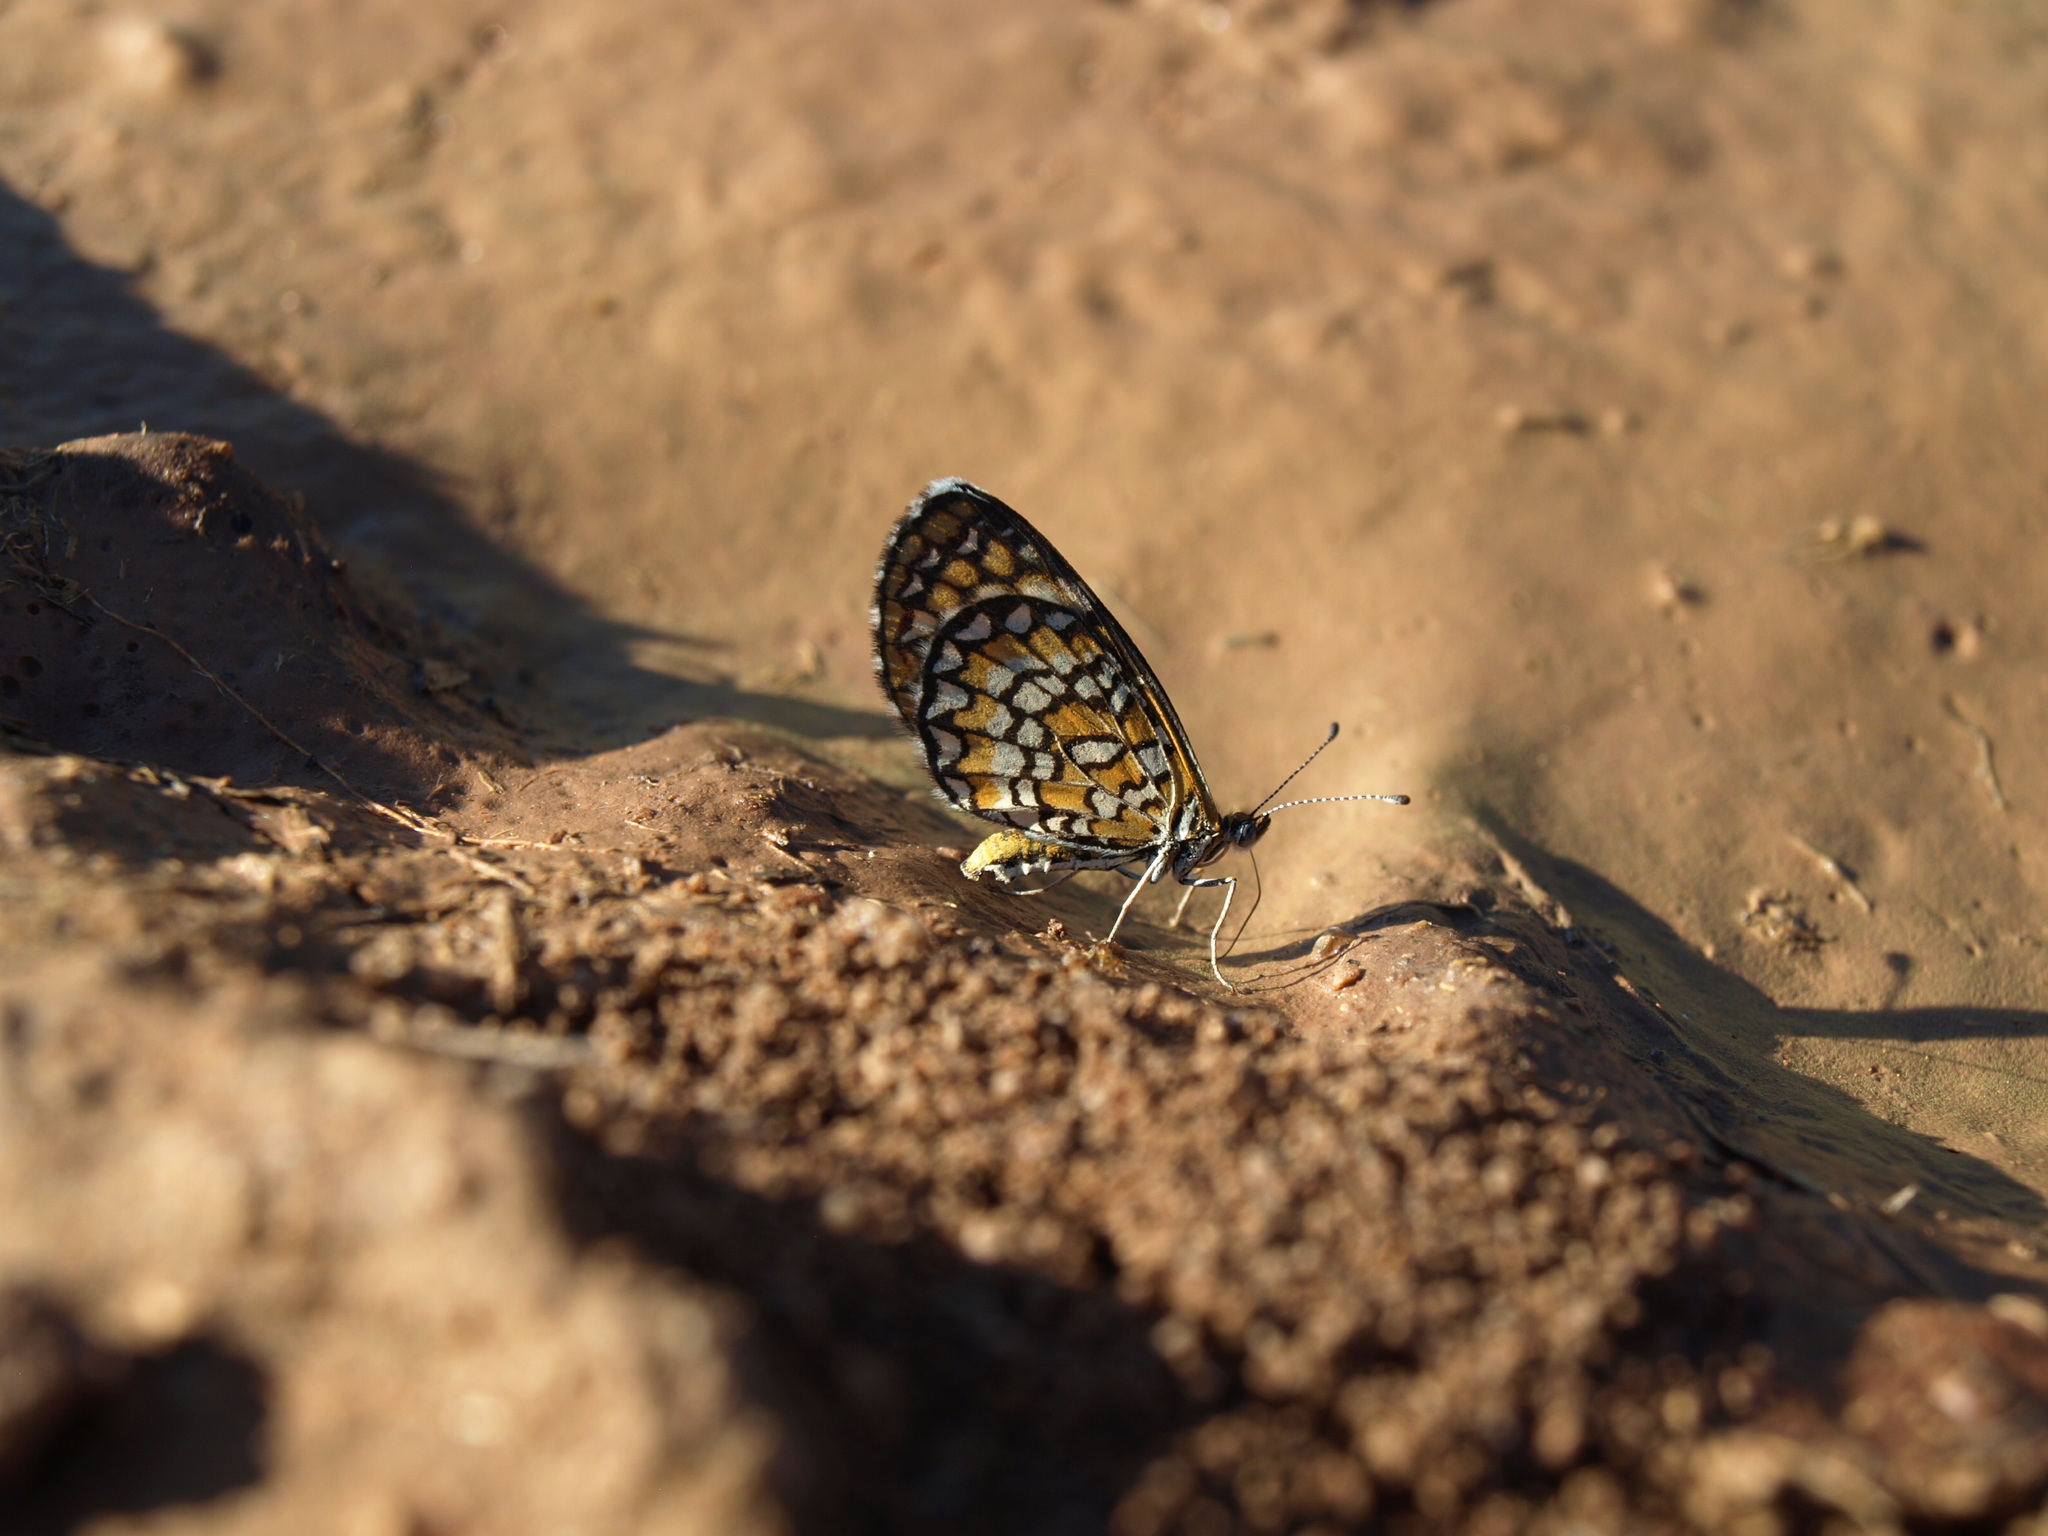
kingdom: Animalia
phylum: Arthropoda
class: Insecta
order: Lepidoptera
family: Nymphalidae
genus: Dymasia
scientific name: Dymasia dymas
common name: Tiny checkerspot
